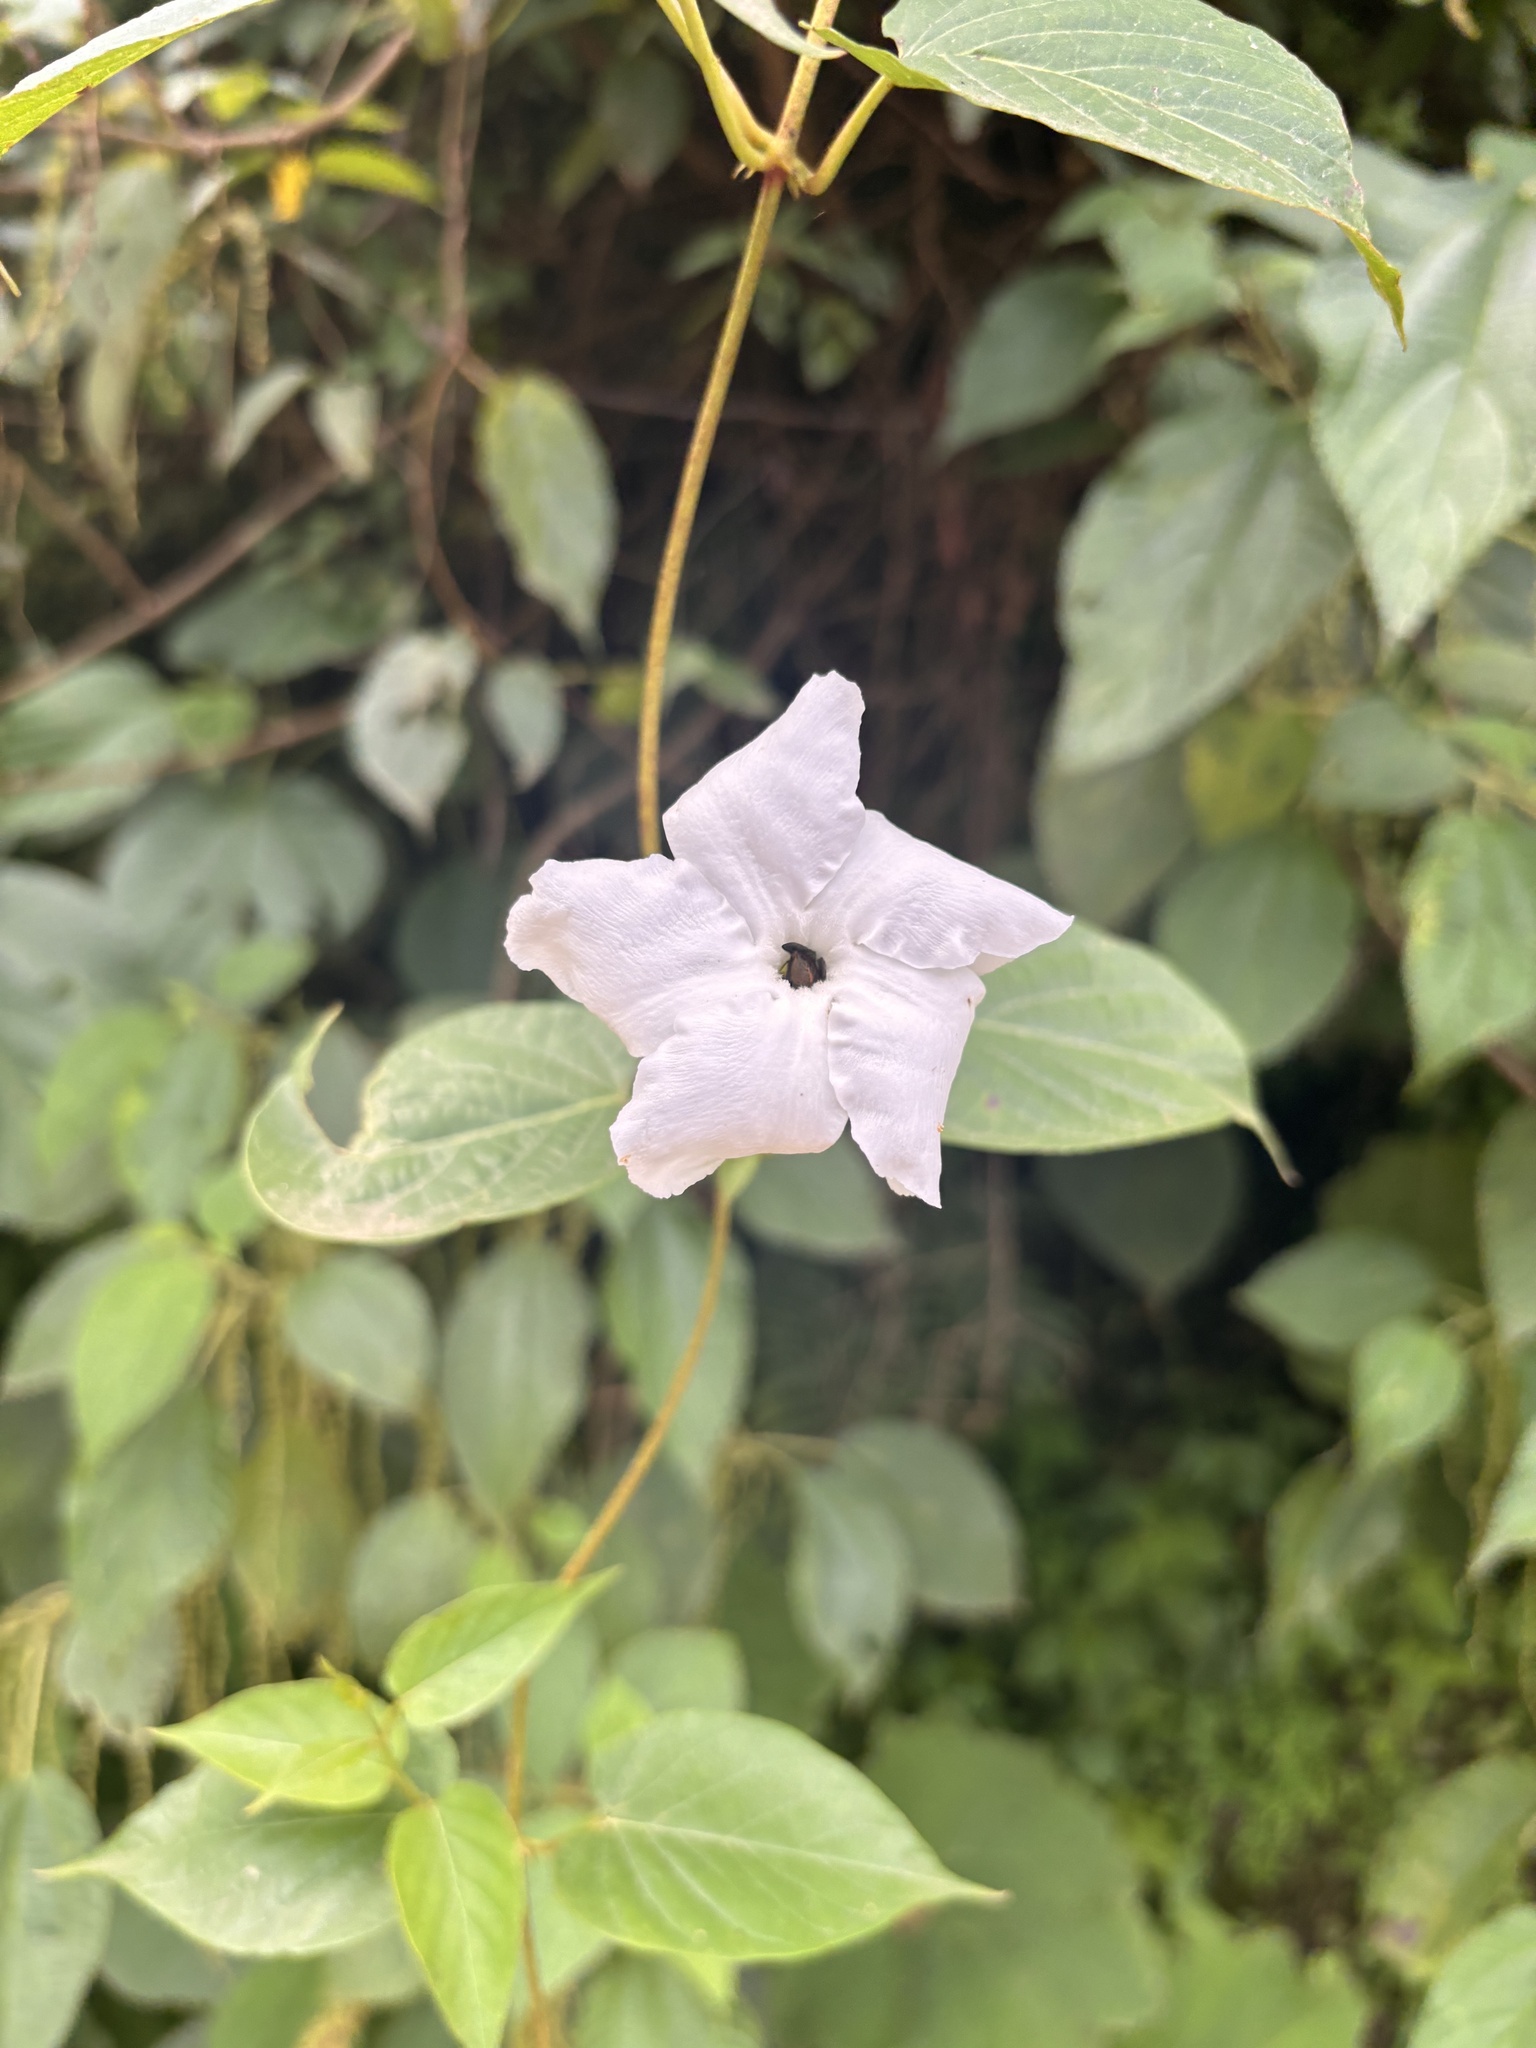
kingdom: Plantae
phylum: Tracheophyta
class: Magnoliopsida
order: Gentianales
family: Apocynaceae
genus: Mandevilla
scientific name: Mandevilla laxa
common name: Chilean-jasmine
